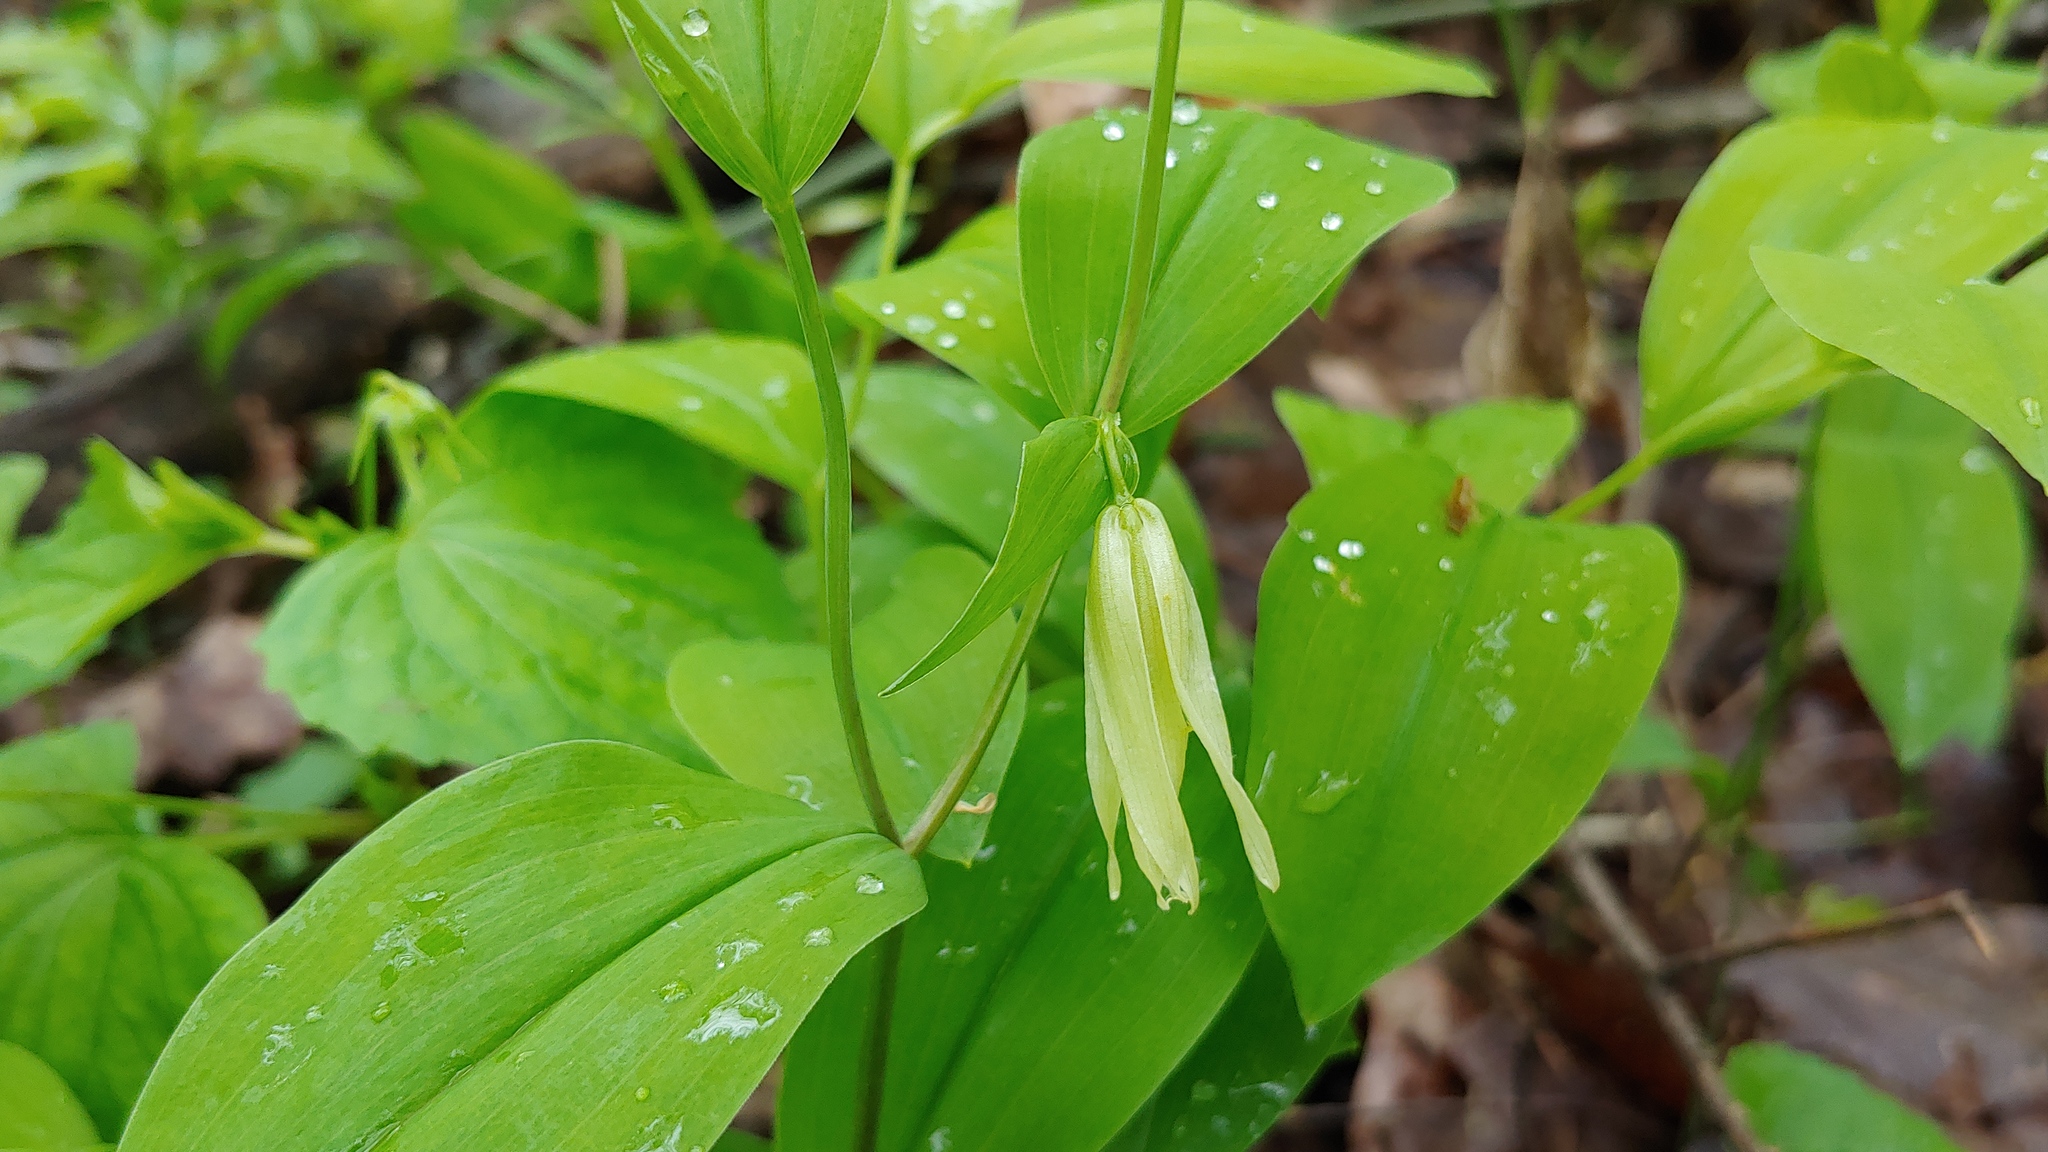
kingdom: Plantae
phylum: Tracheophyta
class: Liliopsida
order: Liliales
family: Colchicaceae
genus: Uvularia
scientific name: Uvularia floridana
